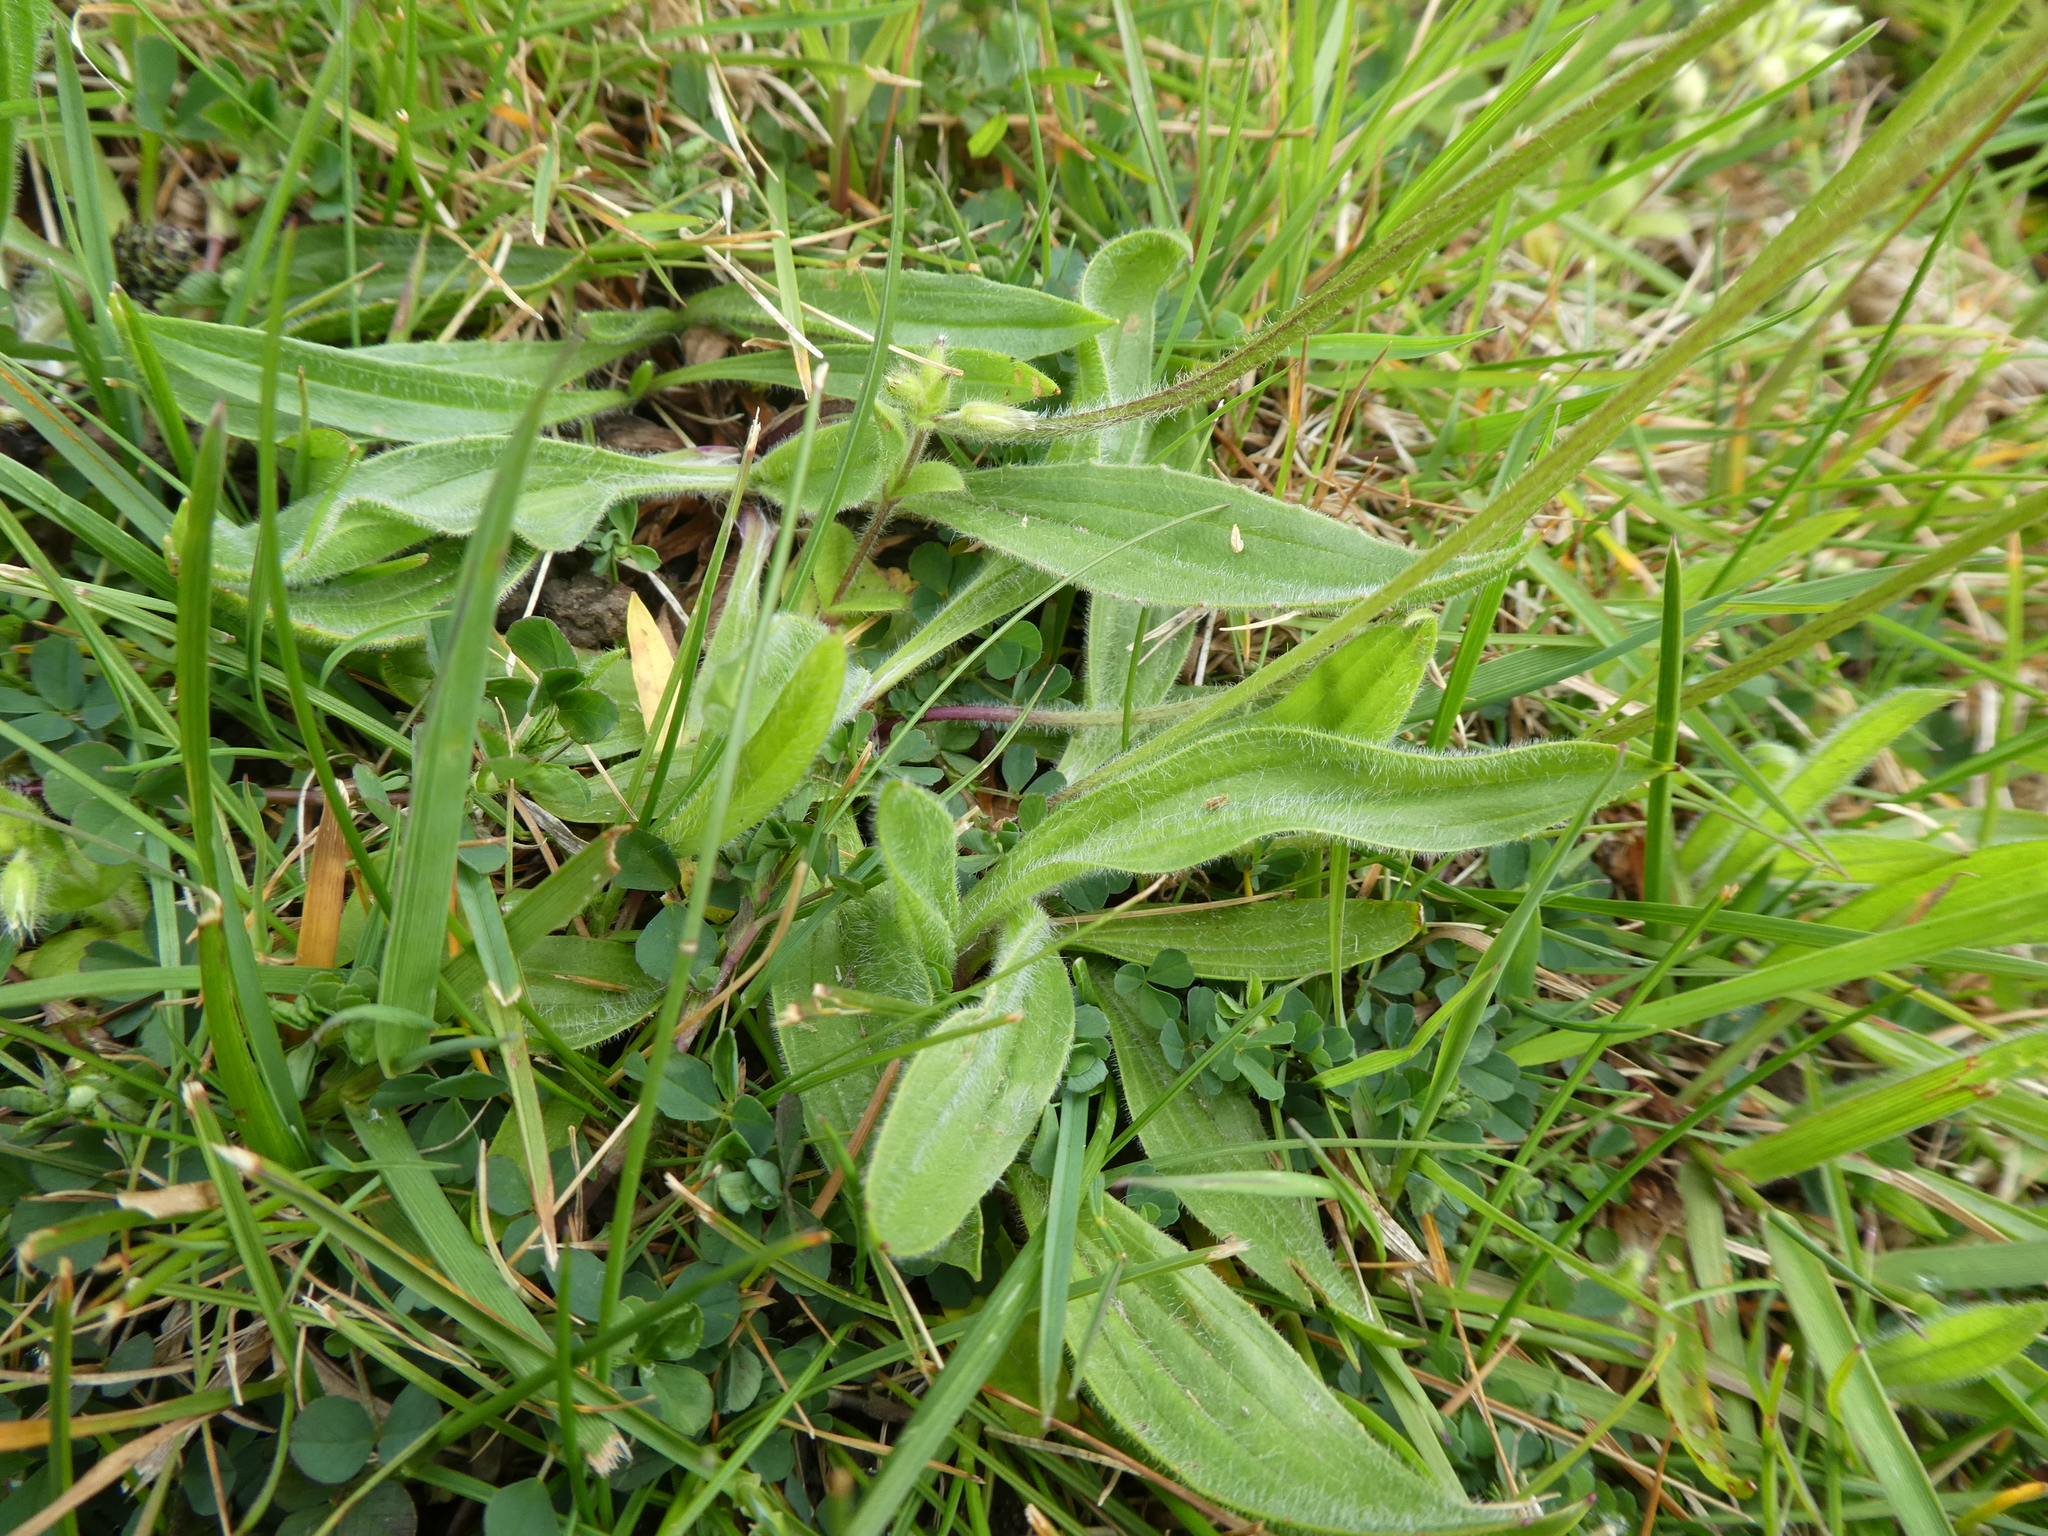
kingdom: Plantae
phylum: Tracheophyta
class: Magnoliopsida
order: Lamiales
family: Plantaginaceae
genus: Plantago
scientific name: Plantago lanceolata
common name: Ribwort plantain
